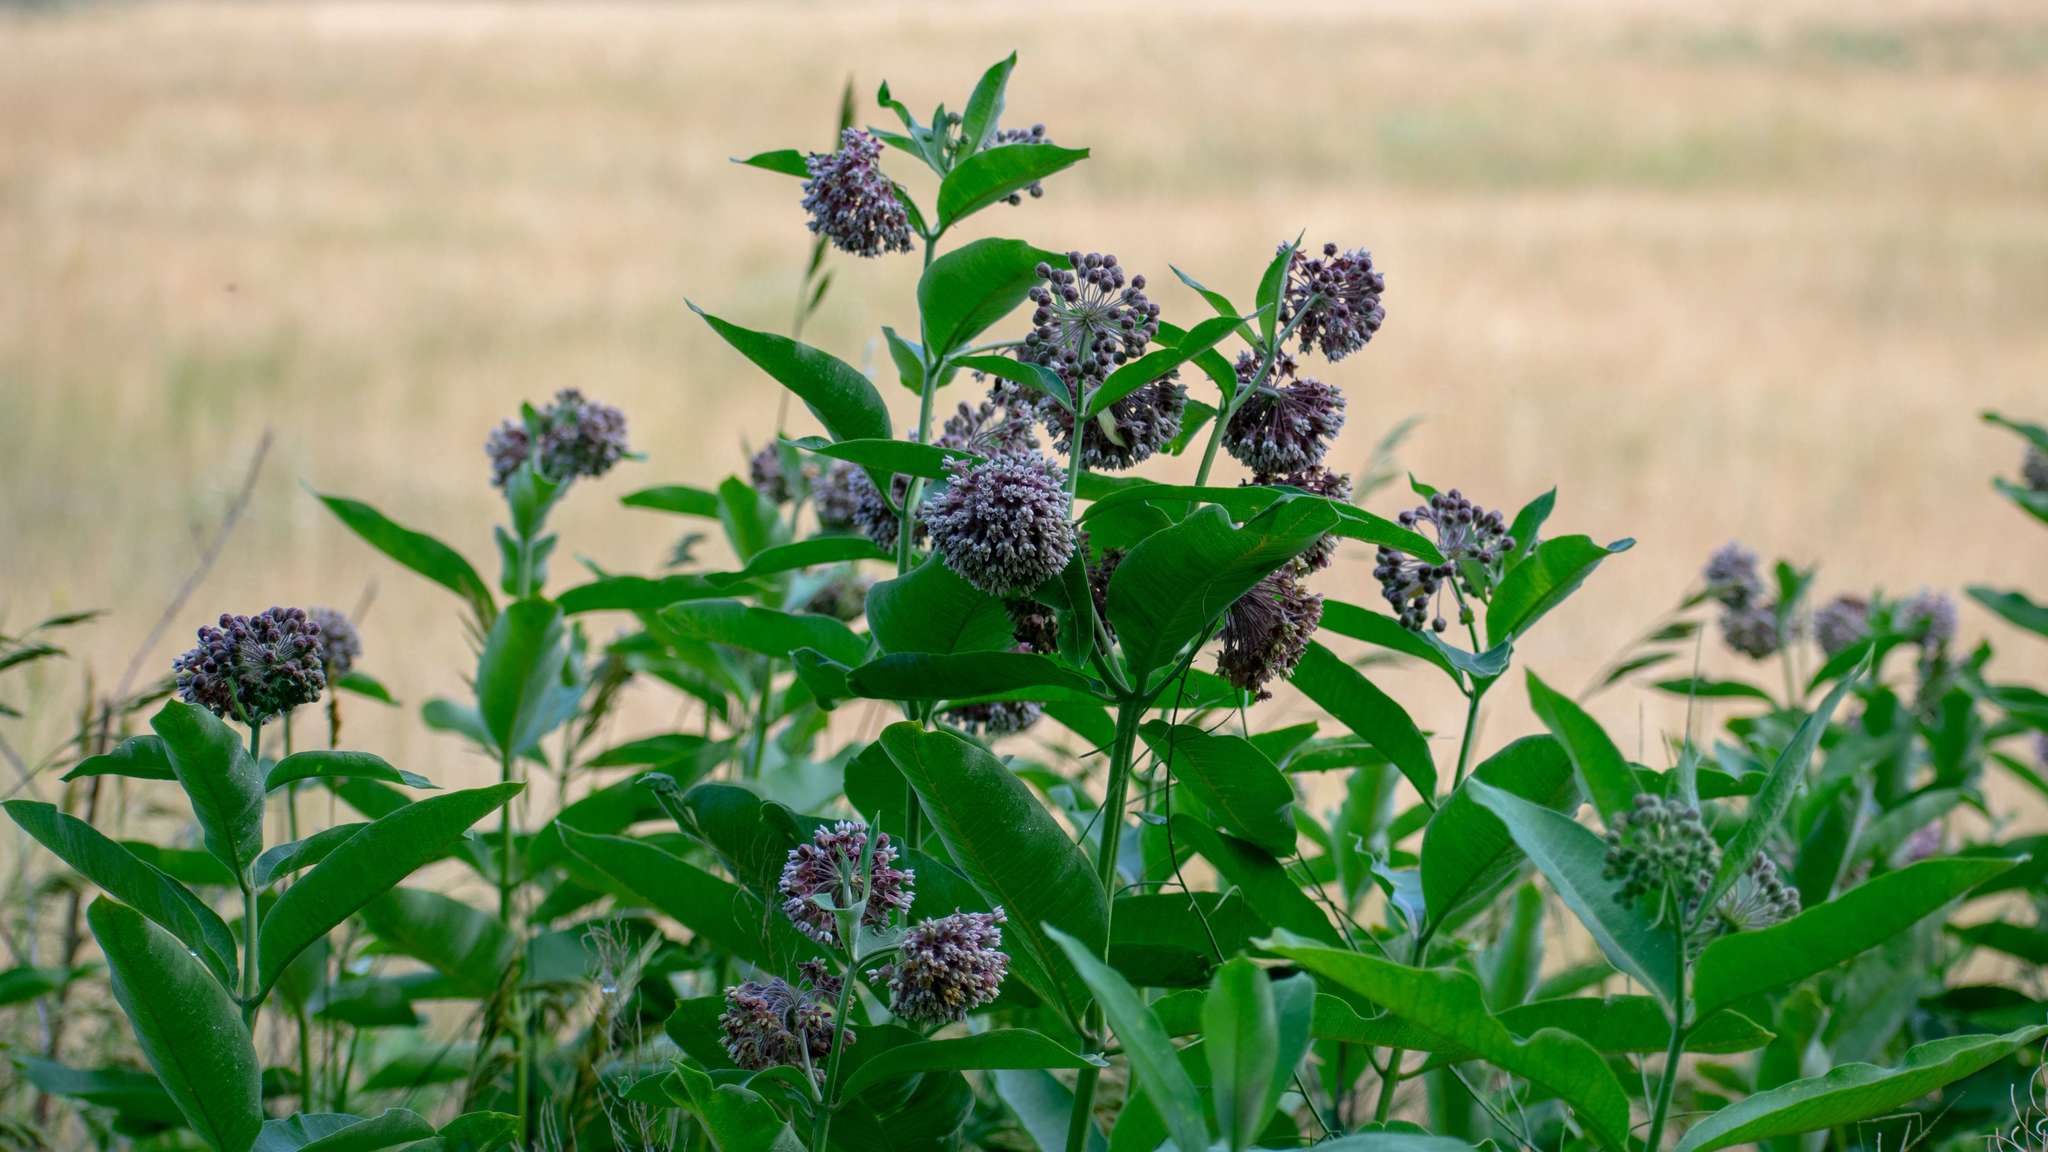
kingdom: Plantae
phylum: Tracheophyta
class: Magnoliopsida
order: Gentianales
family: Apocynaceae
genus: Asclepias
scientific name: Asclepias syriaca
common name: Common milkweed
